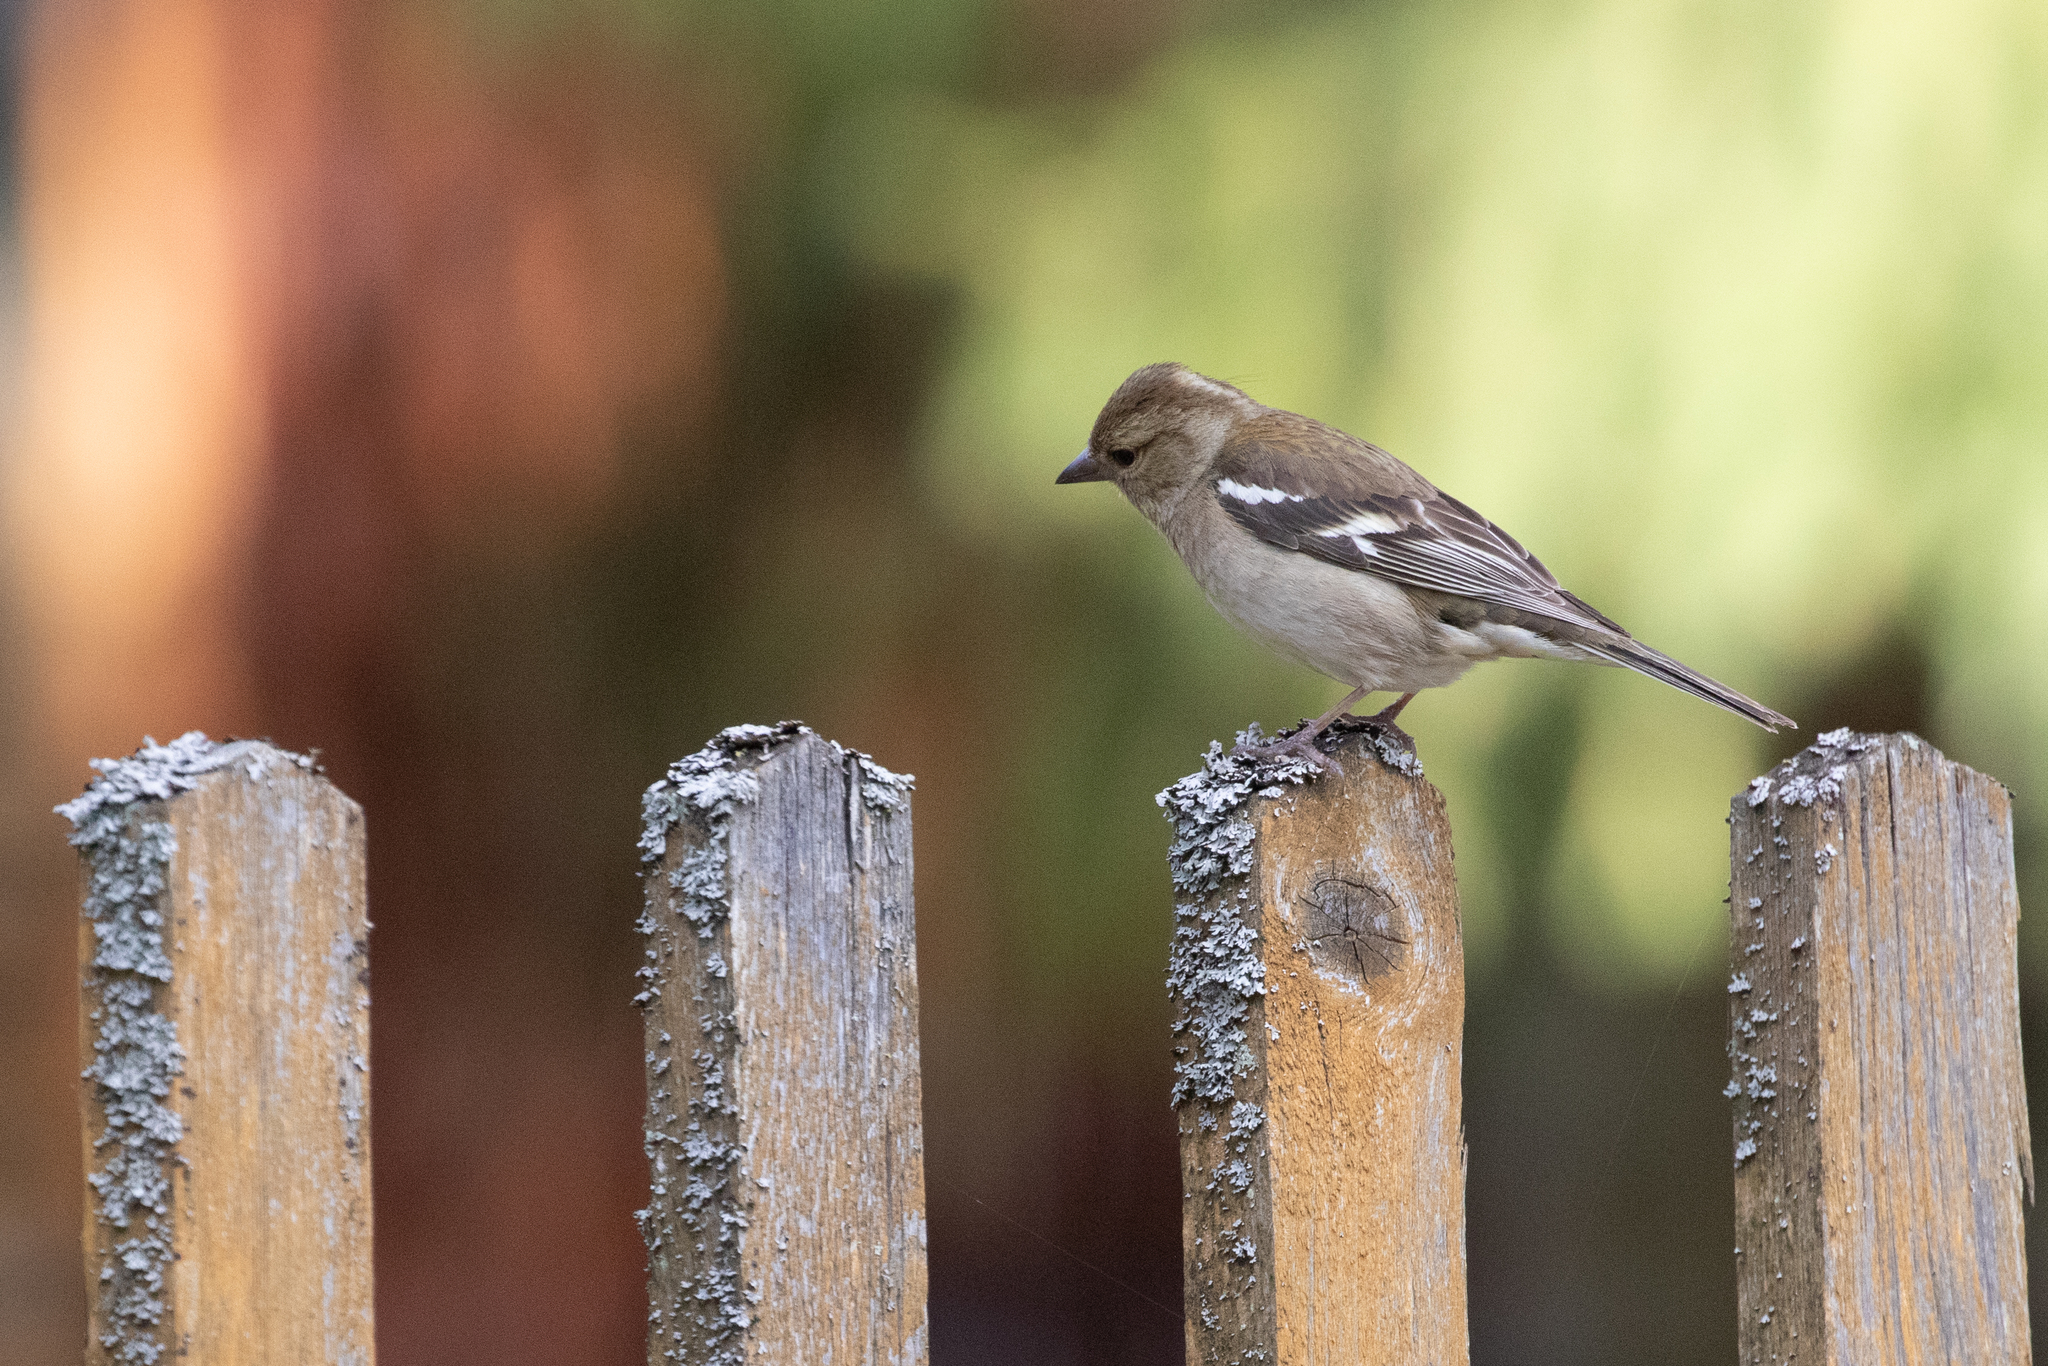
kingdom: Animalia
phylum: Chordata
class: Aves
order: Passeriformes
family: Fringillidae
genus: Fringilla
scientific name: Fringilla coelebs
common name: Common chaffinch
